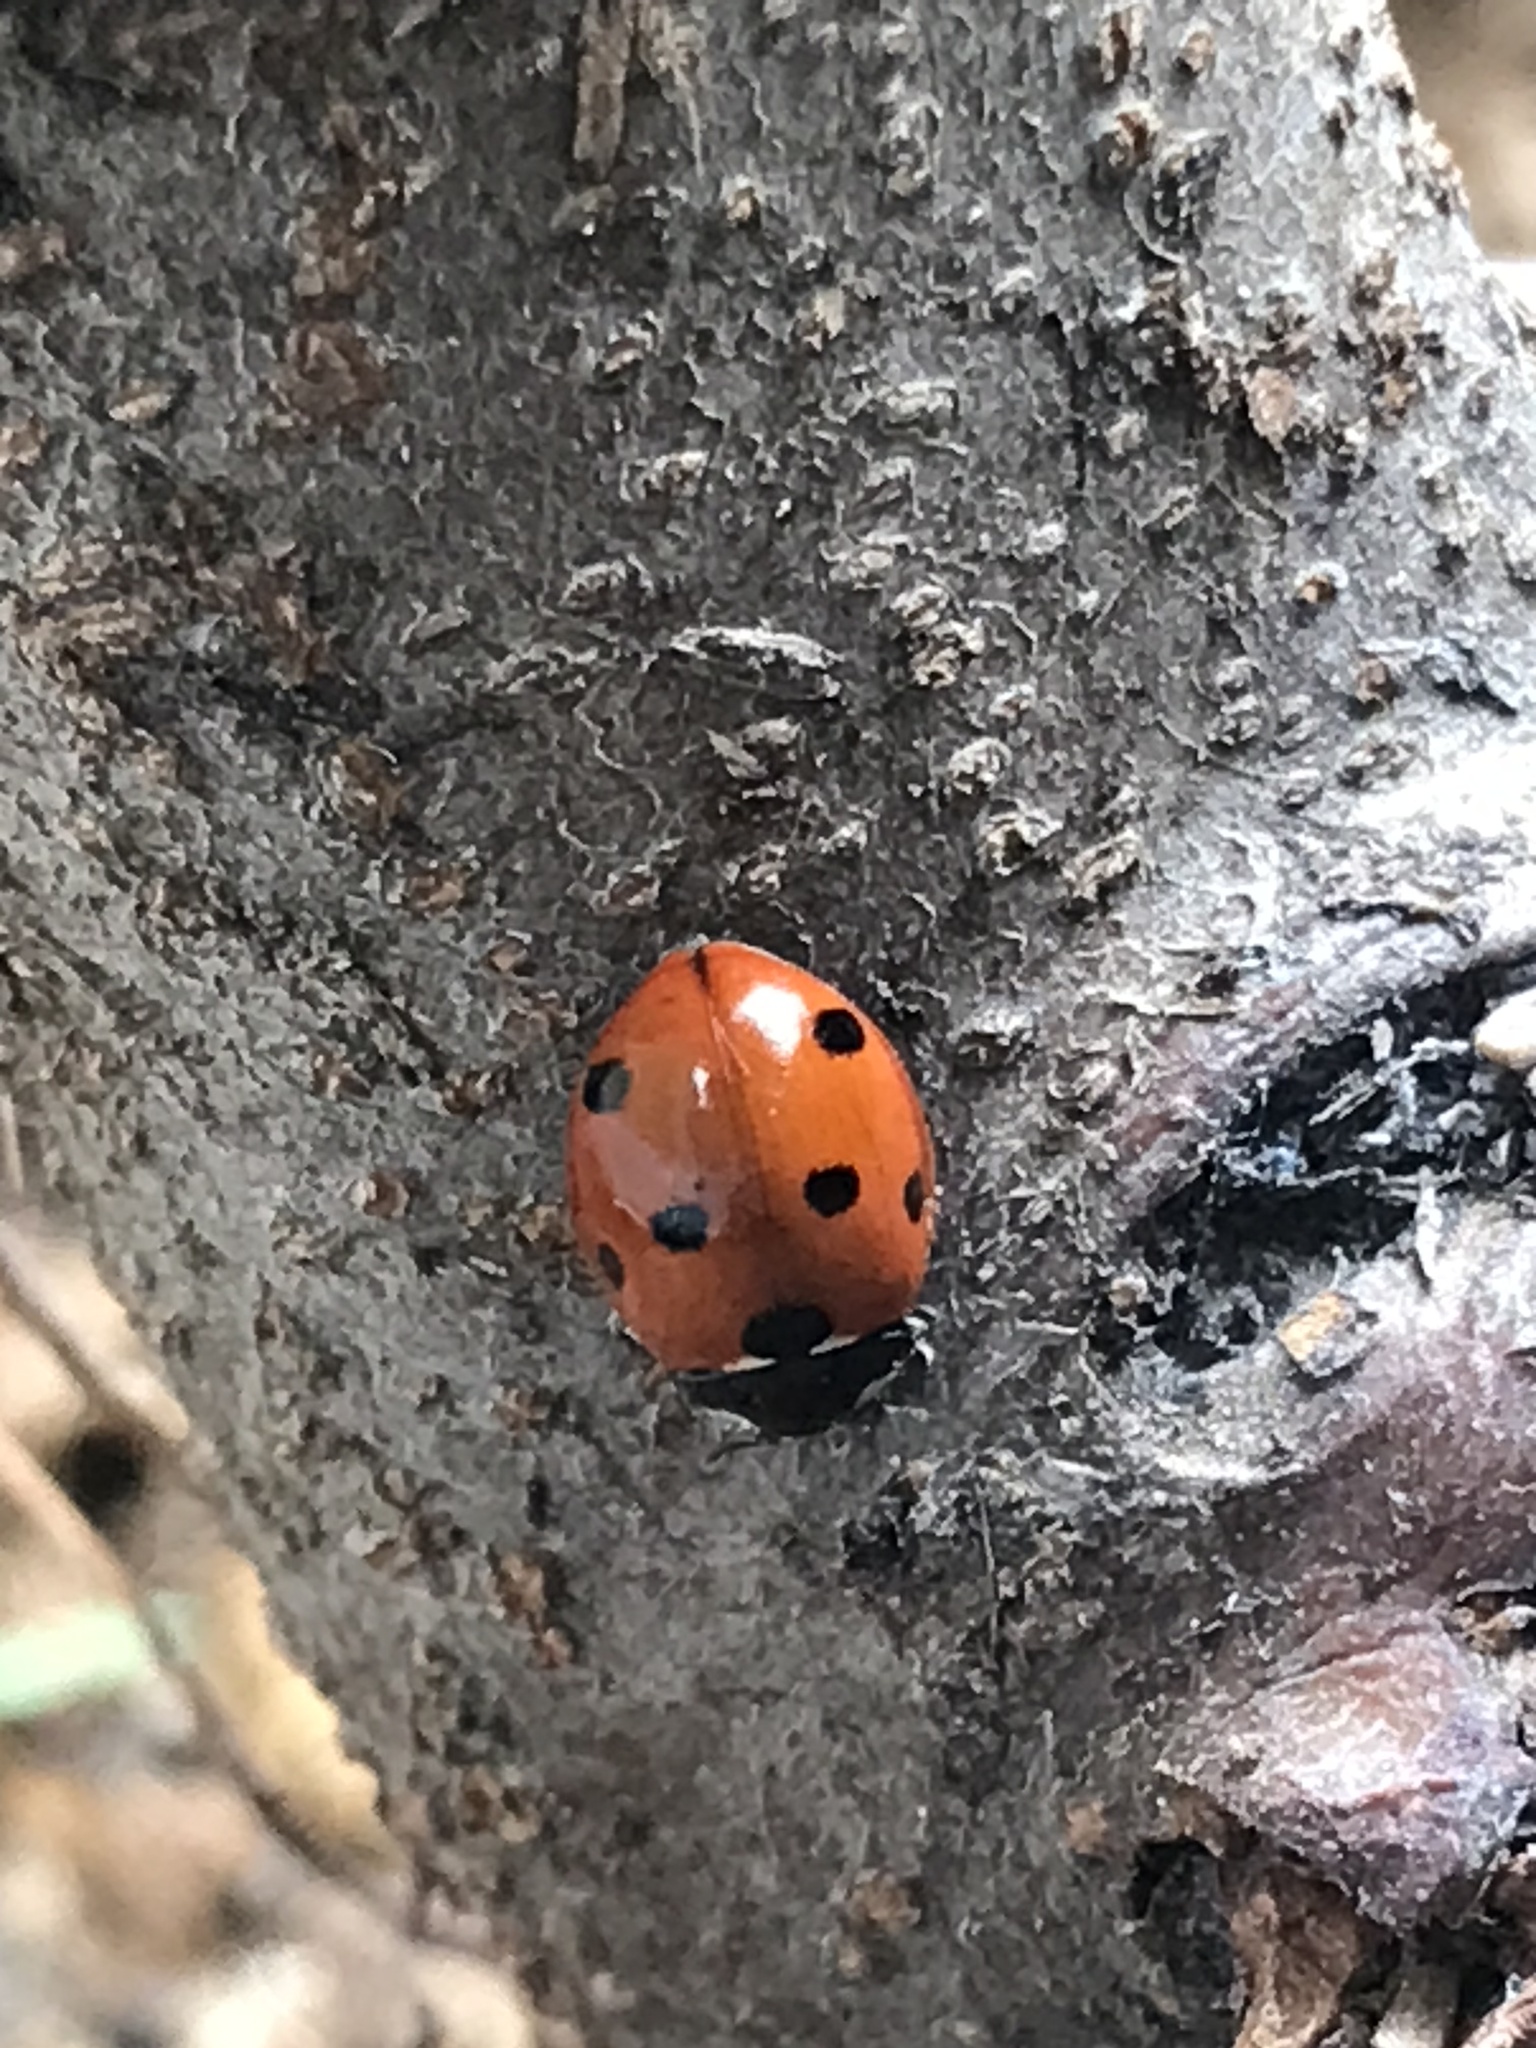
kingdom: Animalia
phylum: Arthropoda
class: Insecta
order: Coleoptera
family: Coccinellidae
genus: Coccinella
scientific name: Coccinella septempunctata
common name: Sevenspotted lady beetle
